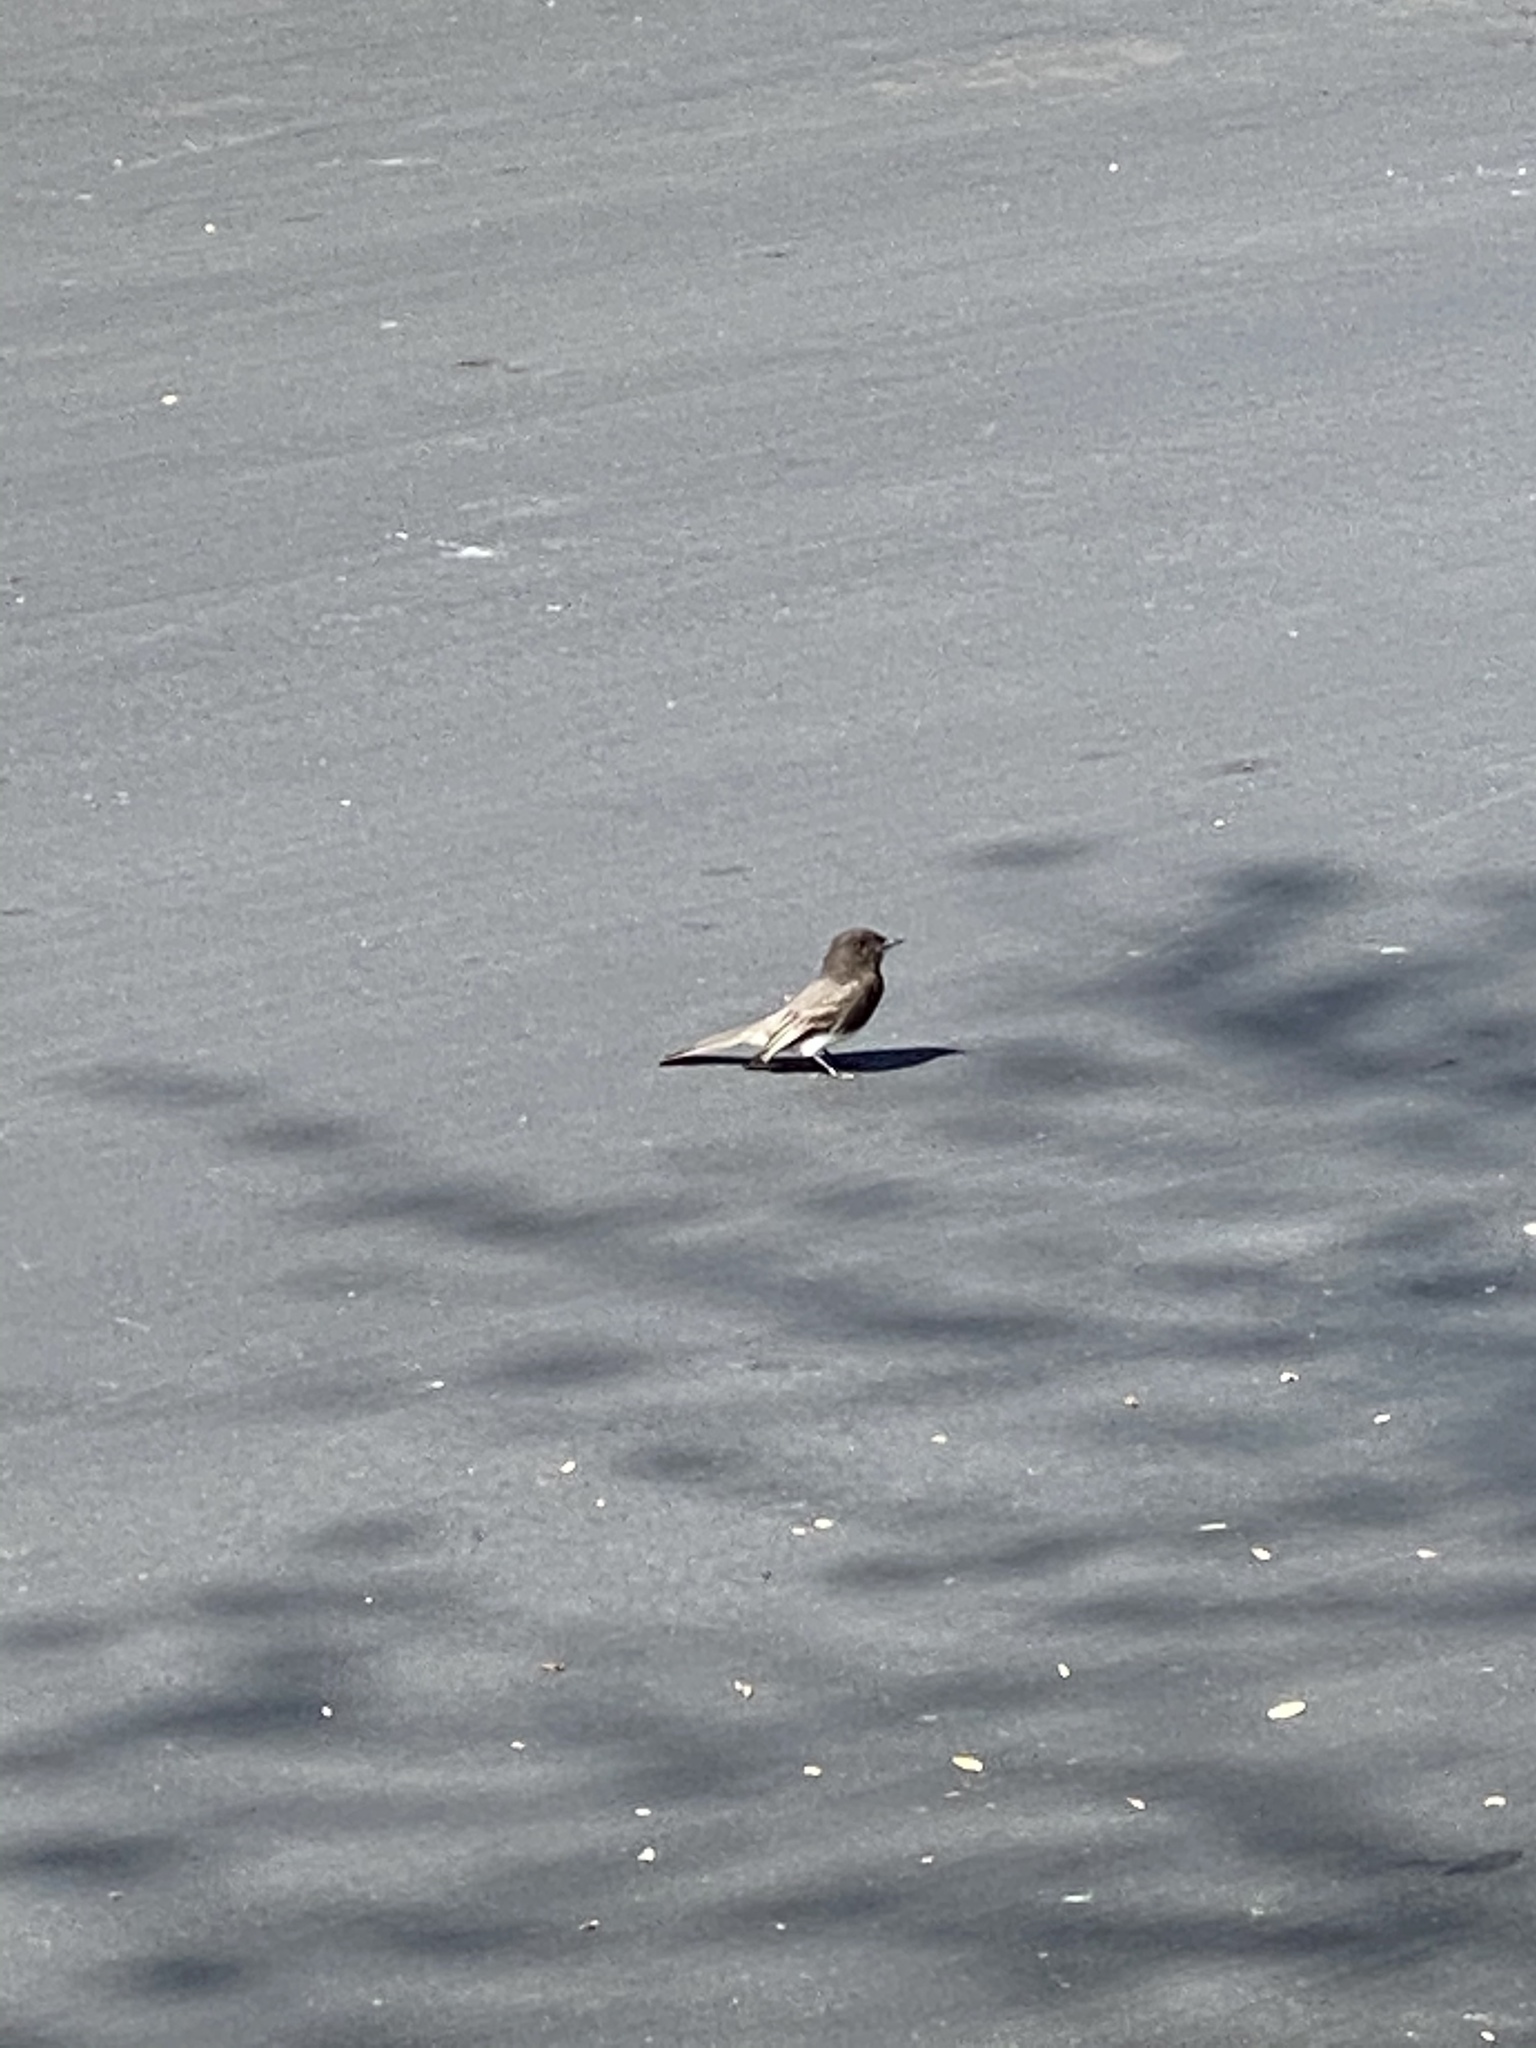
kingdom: Animalia
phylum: Chordata
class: Aves
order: Passeriformes
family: Tyrannidae
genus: Sayornis
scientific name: Sayornis nigricans
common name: Black phoebe
